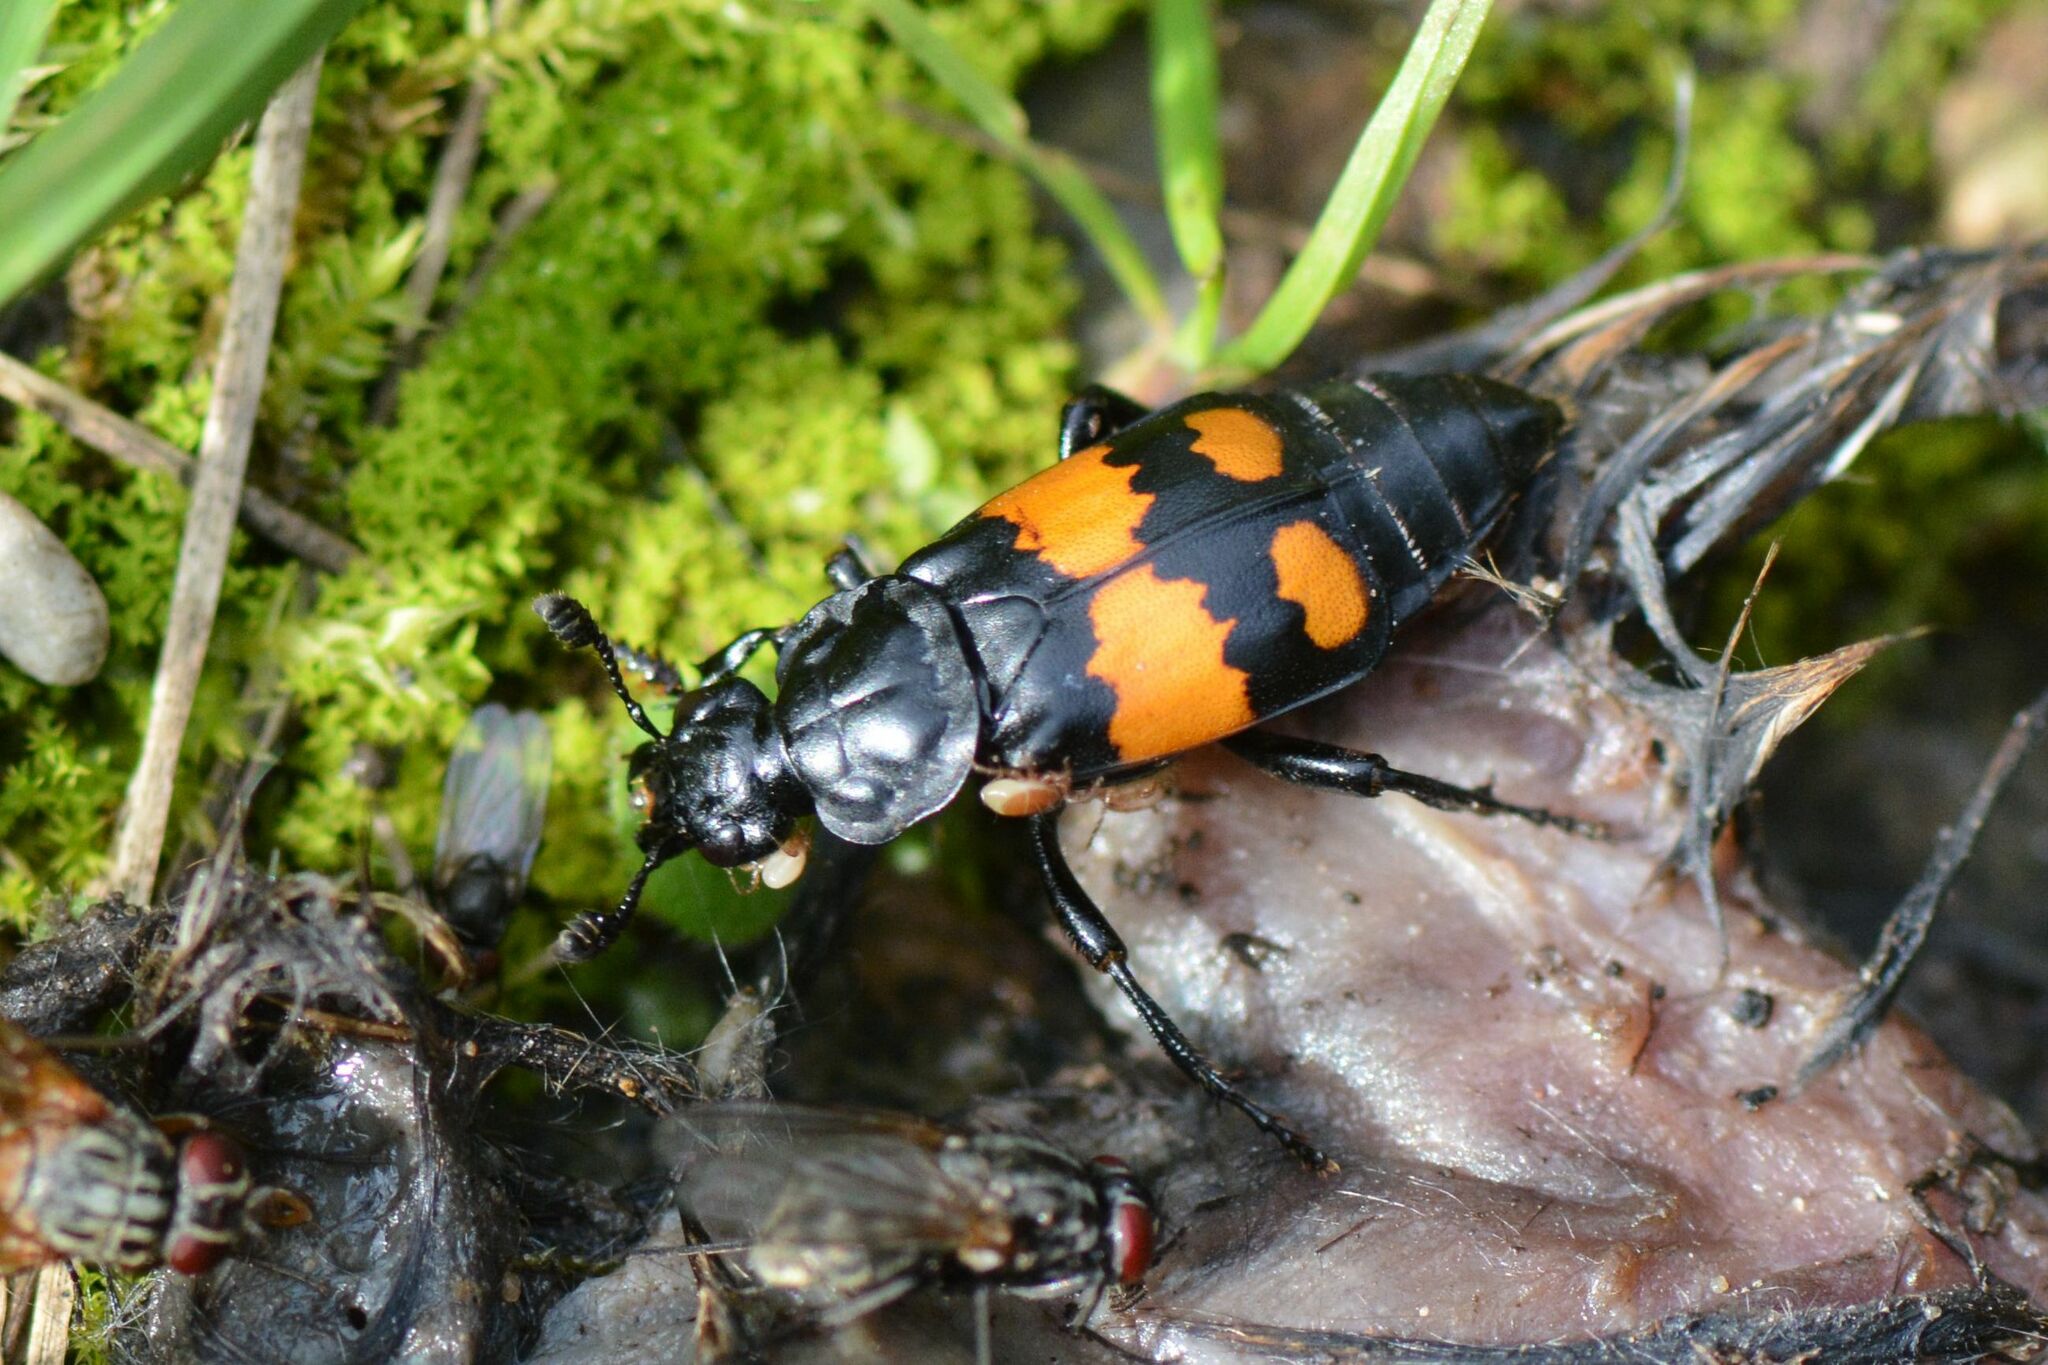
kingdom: Animalia
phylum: Arthropoda
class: Insecta
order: Coleoptera
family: Staphylinidae
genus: Nicrophorus
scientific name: Nicrophorus vespilloides
